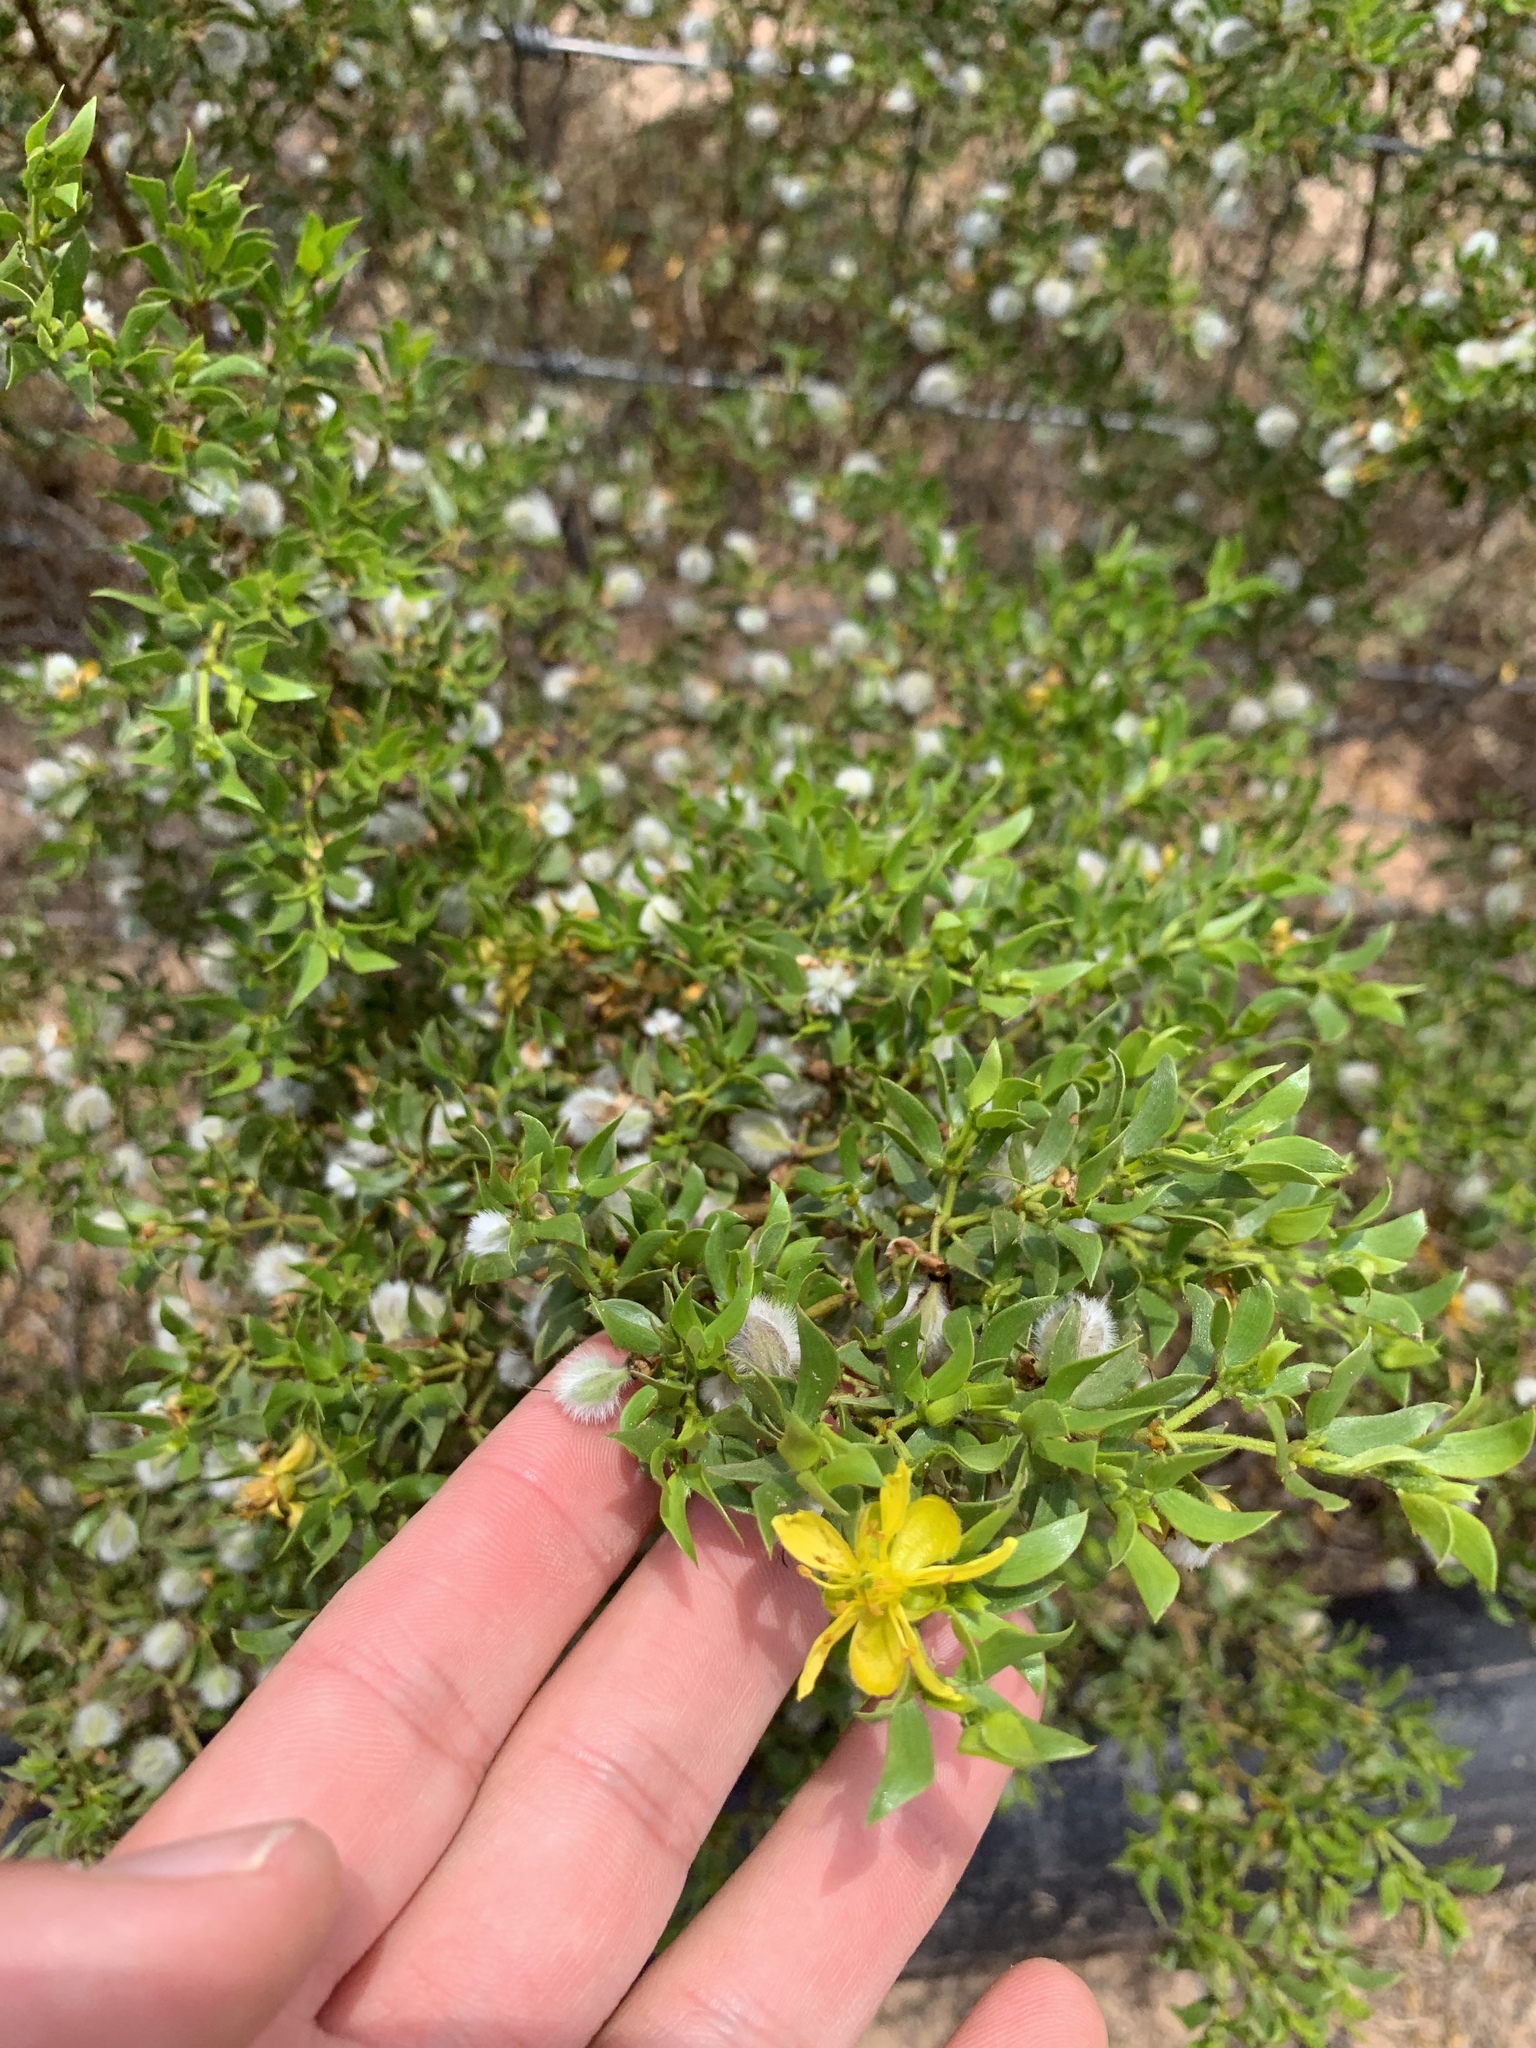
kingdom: Plantae
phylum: Tracheophyta
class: Magnoliopsida
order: Zygophyllales
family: Zygophyllaceae
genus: Larrea
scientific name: Larrea tridentata
